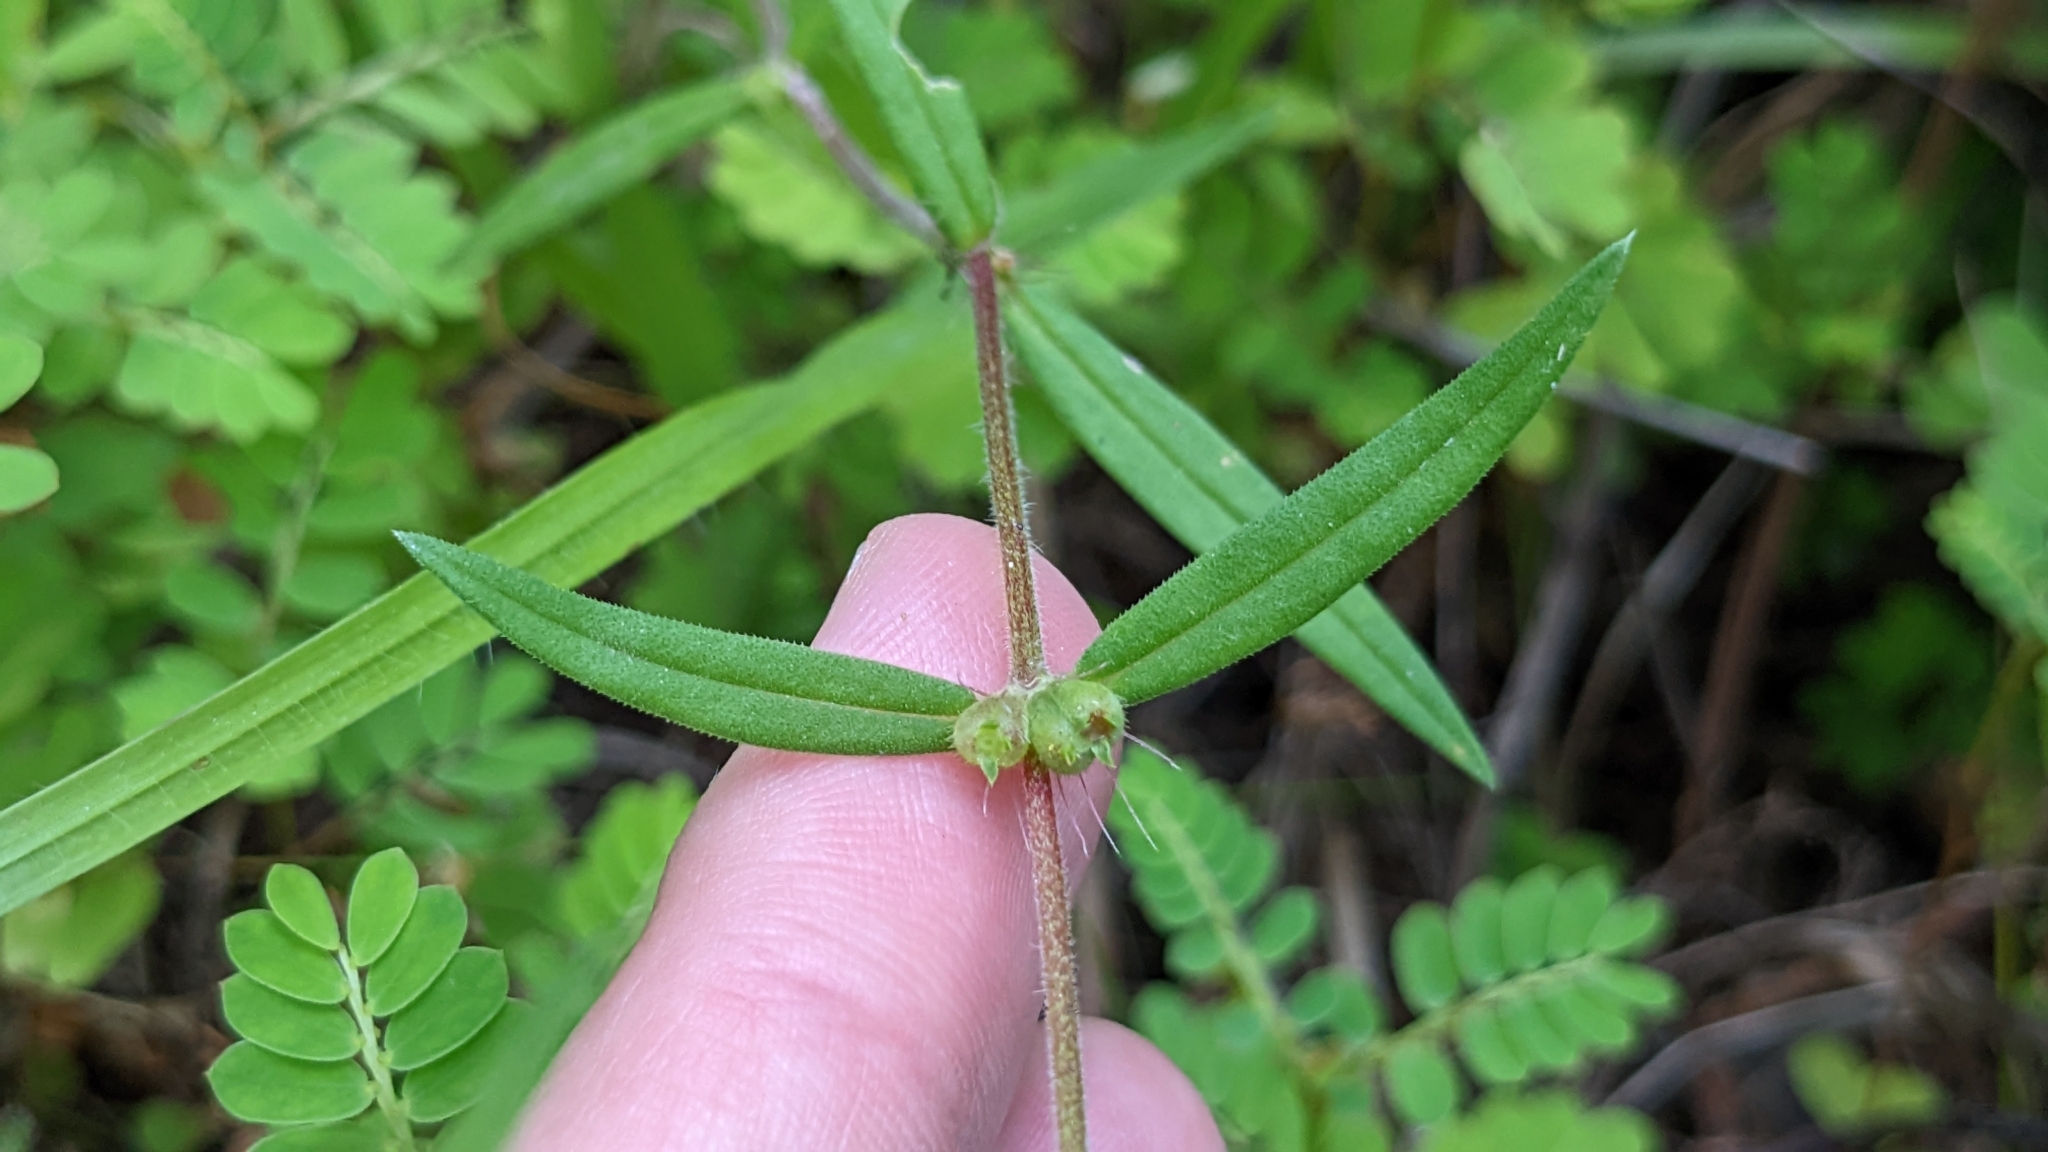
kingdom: Plantae
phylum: Tracheophyta
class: Magnoliopsida
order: Gentianales
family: Rubiaceae
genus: Hexasepalum
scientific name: Hexasepalum teres
